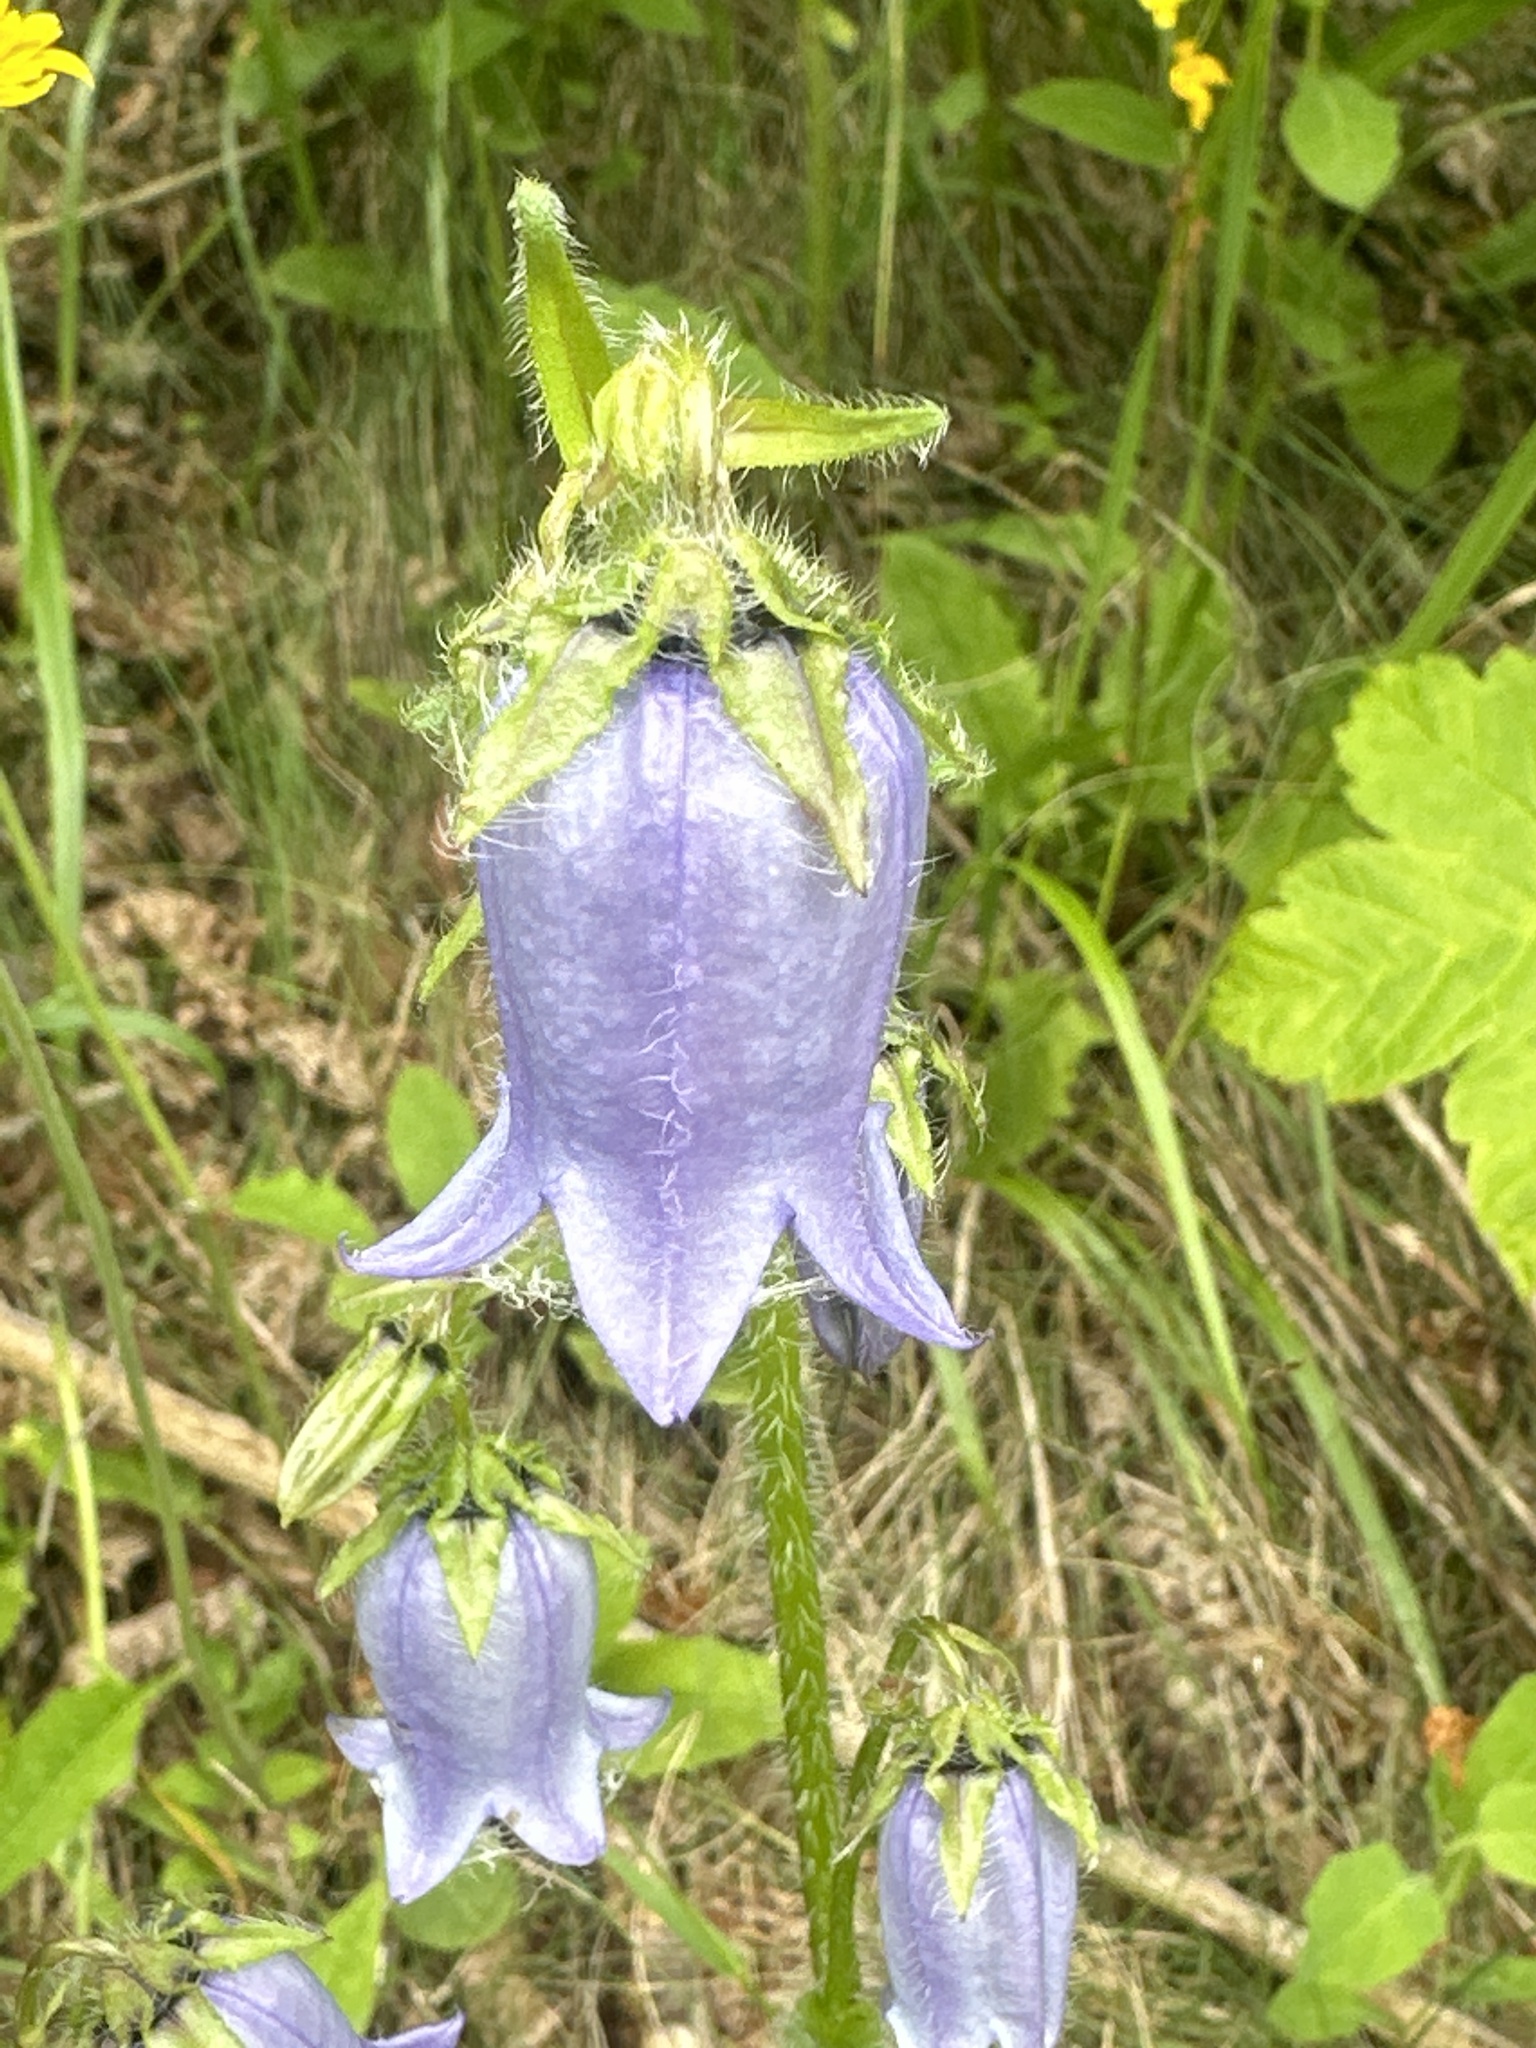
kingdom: Plantae
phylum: Tracheophyta
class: Magnoliopsida
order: Asterales
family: Campanulaceae
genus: Campanula
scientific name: Campanula barbata
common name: Bearded bellflower
